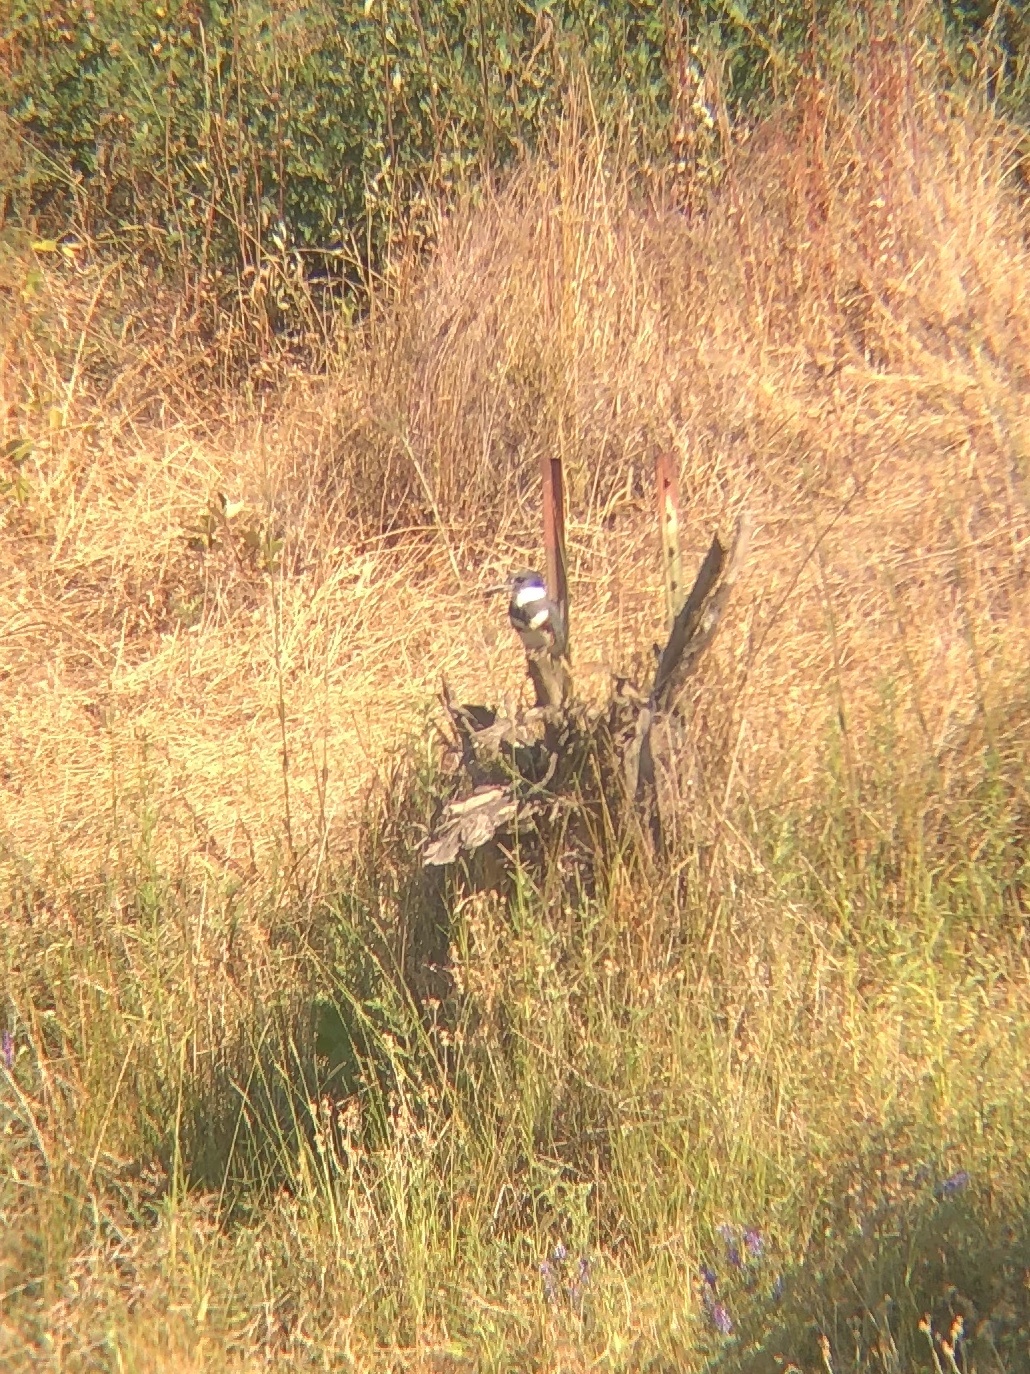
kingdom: Animalia
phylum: Chordata
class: Aves
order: Coraciiformes
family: Alcedinidae
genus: Megaceryle
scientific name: Megaceryle alcyon
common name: Belted kingfisher
